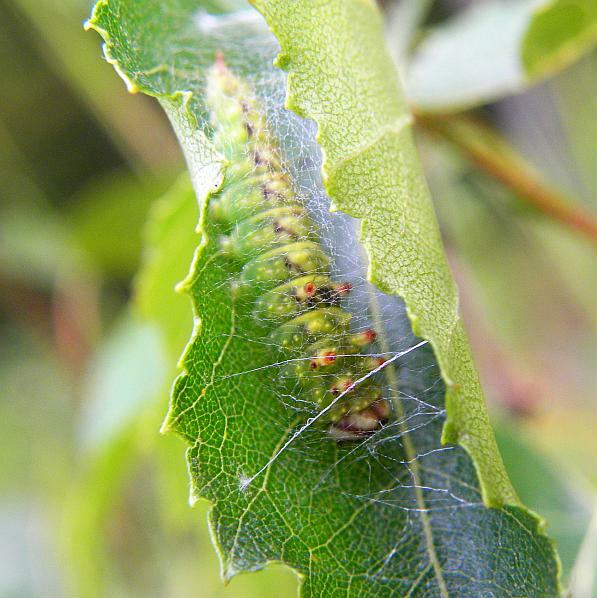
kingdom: Animalia
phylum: Arthropoda
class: Insecta
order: Lepidoptera
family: Drepanidae
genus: Drepana
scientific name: Drepana arcuata
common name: Arched hooktip moth
